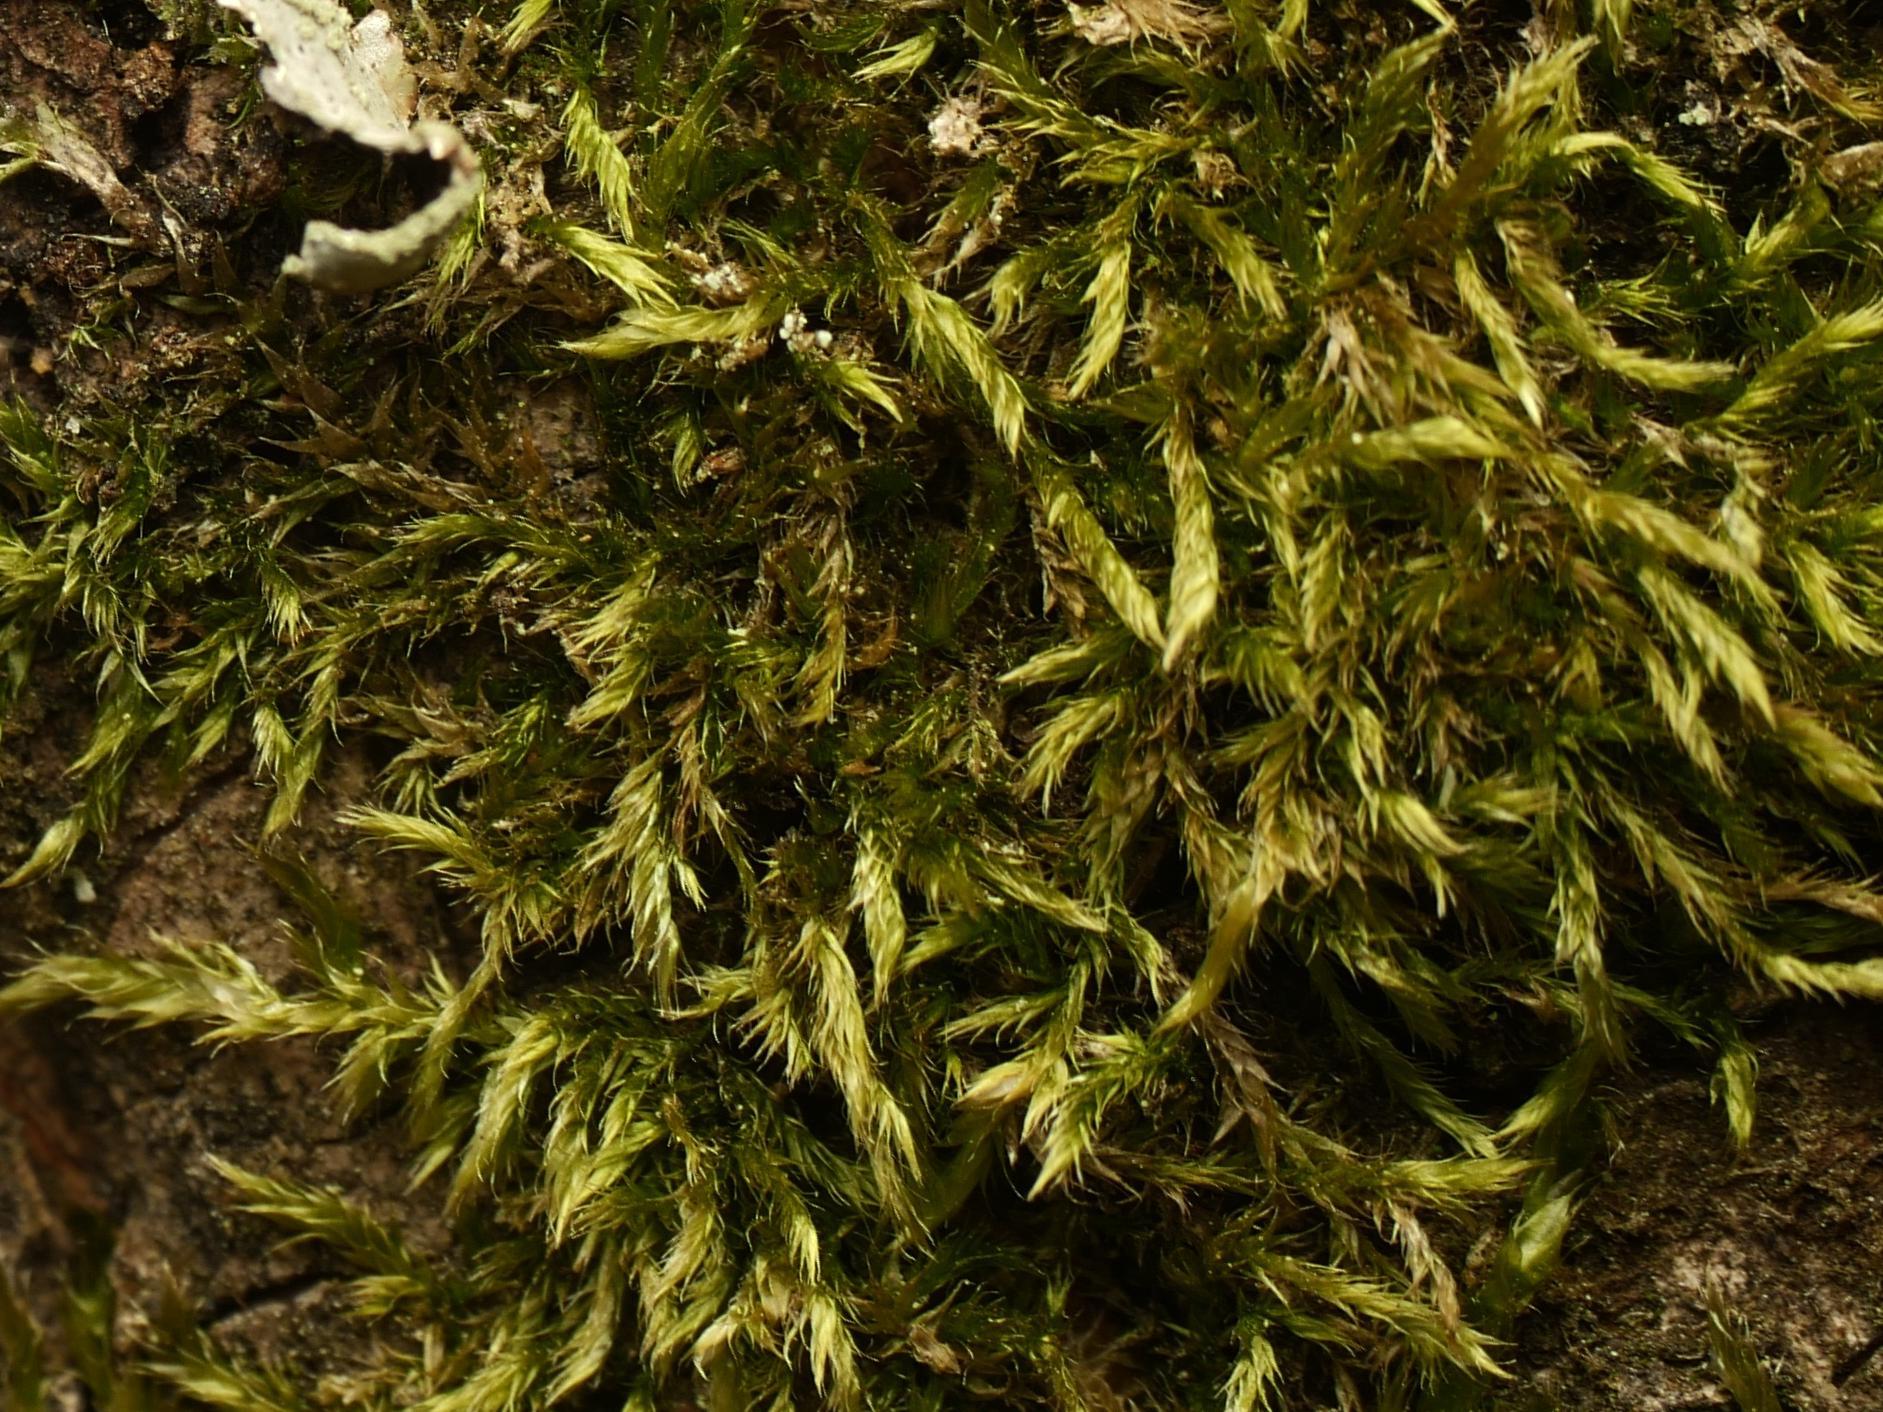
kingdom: Plantae
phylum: Bryophyta
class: Bryopsida
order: Hypnales
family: Hypnaceae
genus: Hypnum
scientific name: Hypnum cupressiforme
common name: Cypress-leaved plait-moss
